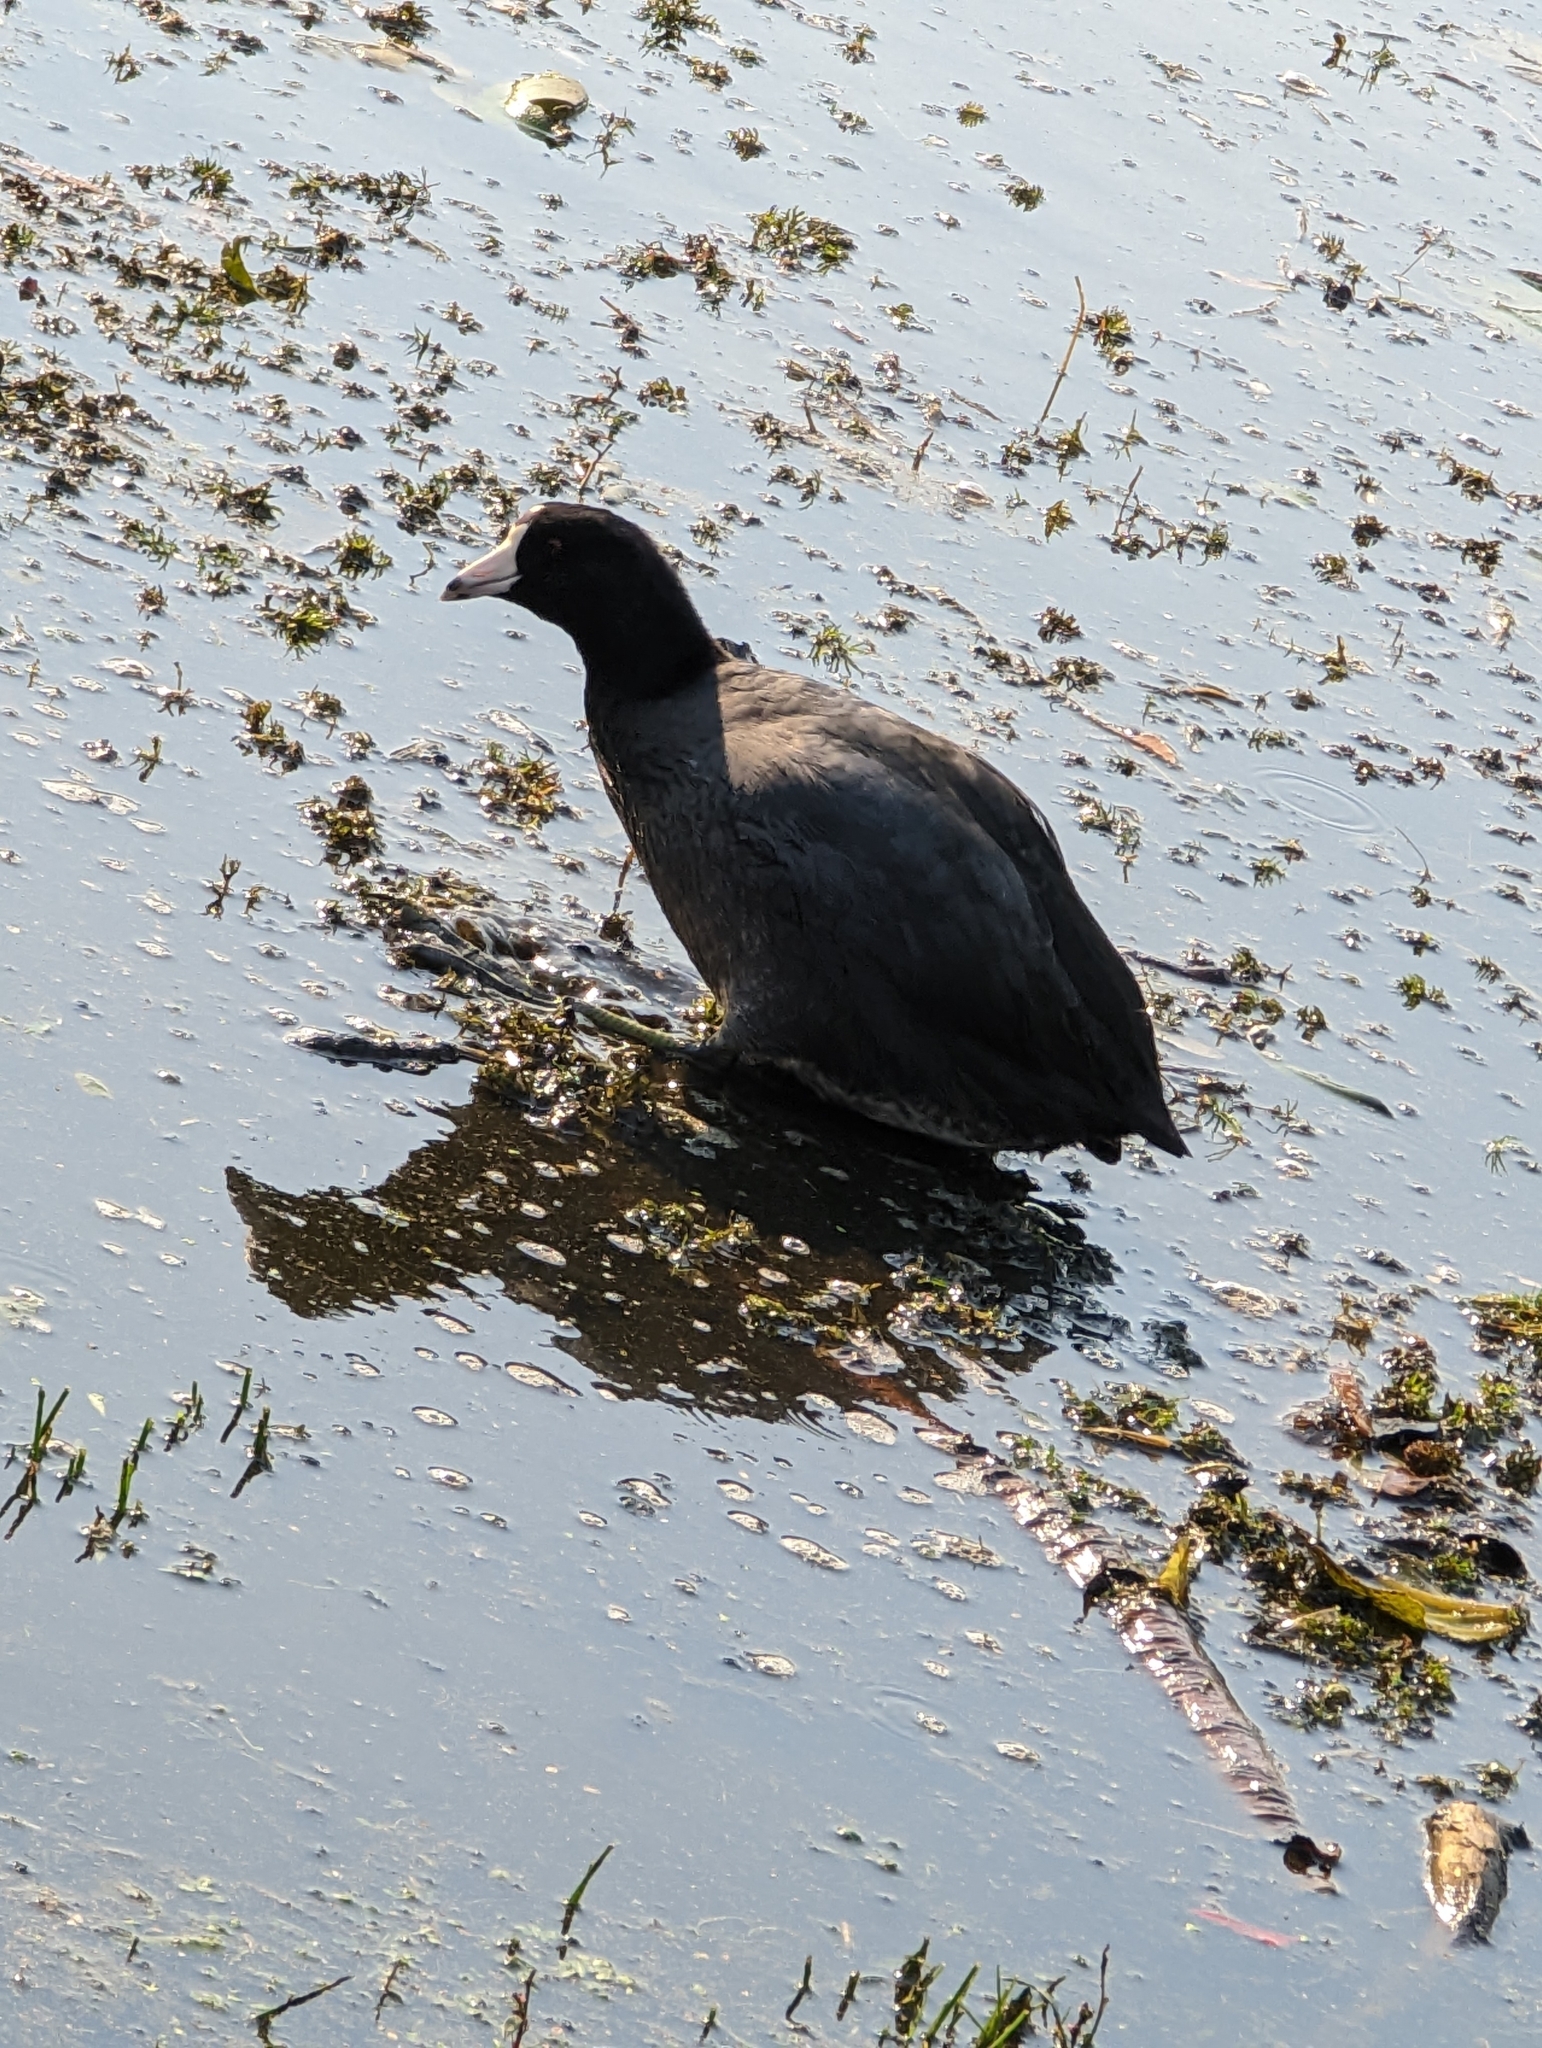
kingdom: Animalia
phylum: Chordata
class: Aves
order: Gruiformes
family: Rallidae
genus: Fulica
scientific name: Fulica americana
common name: American coot
